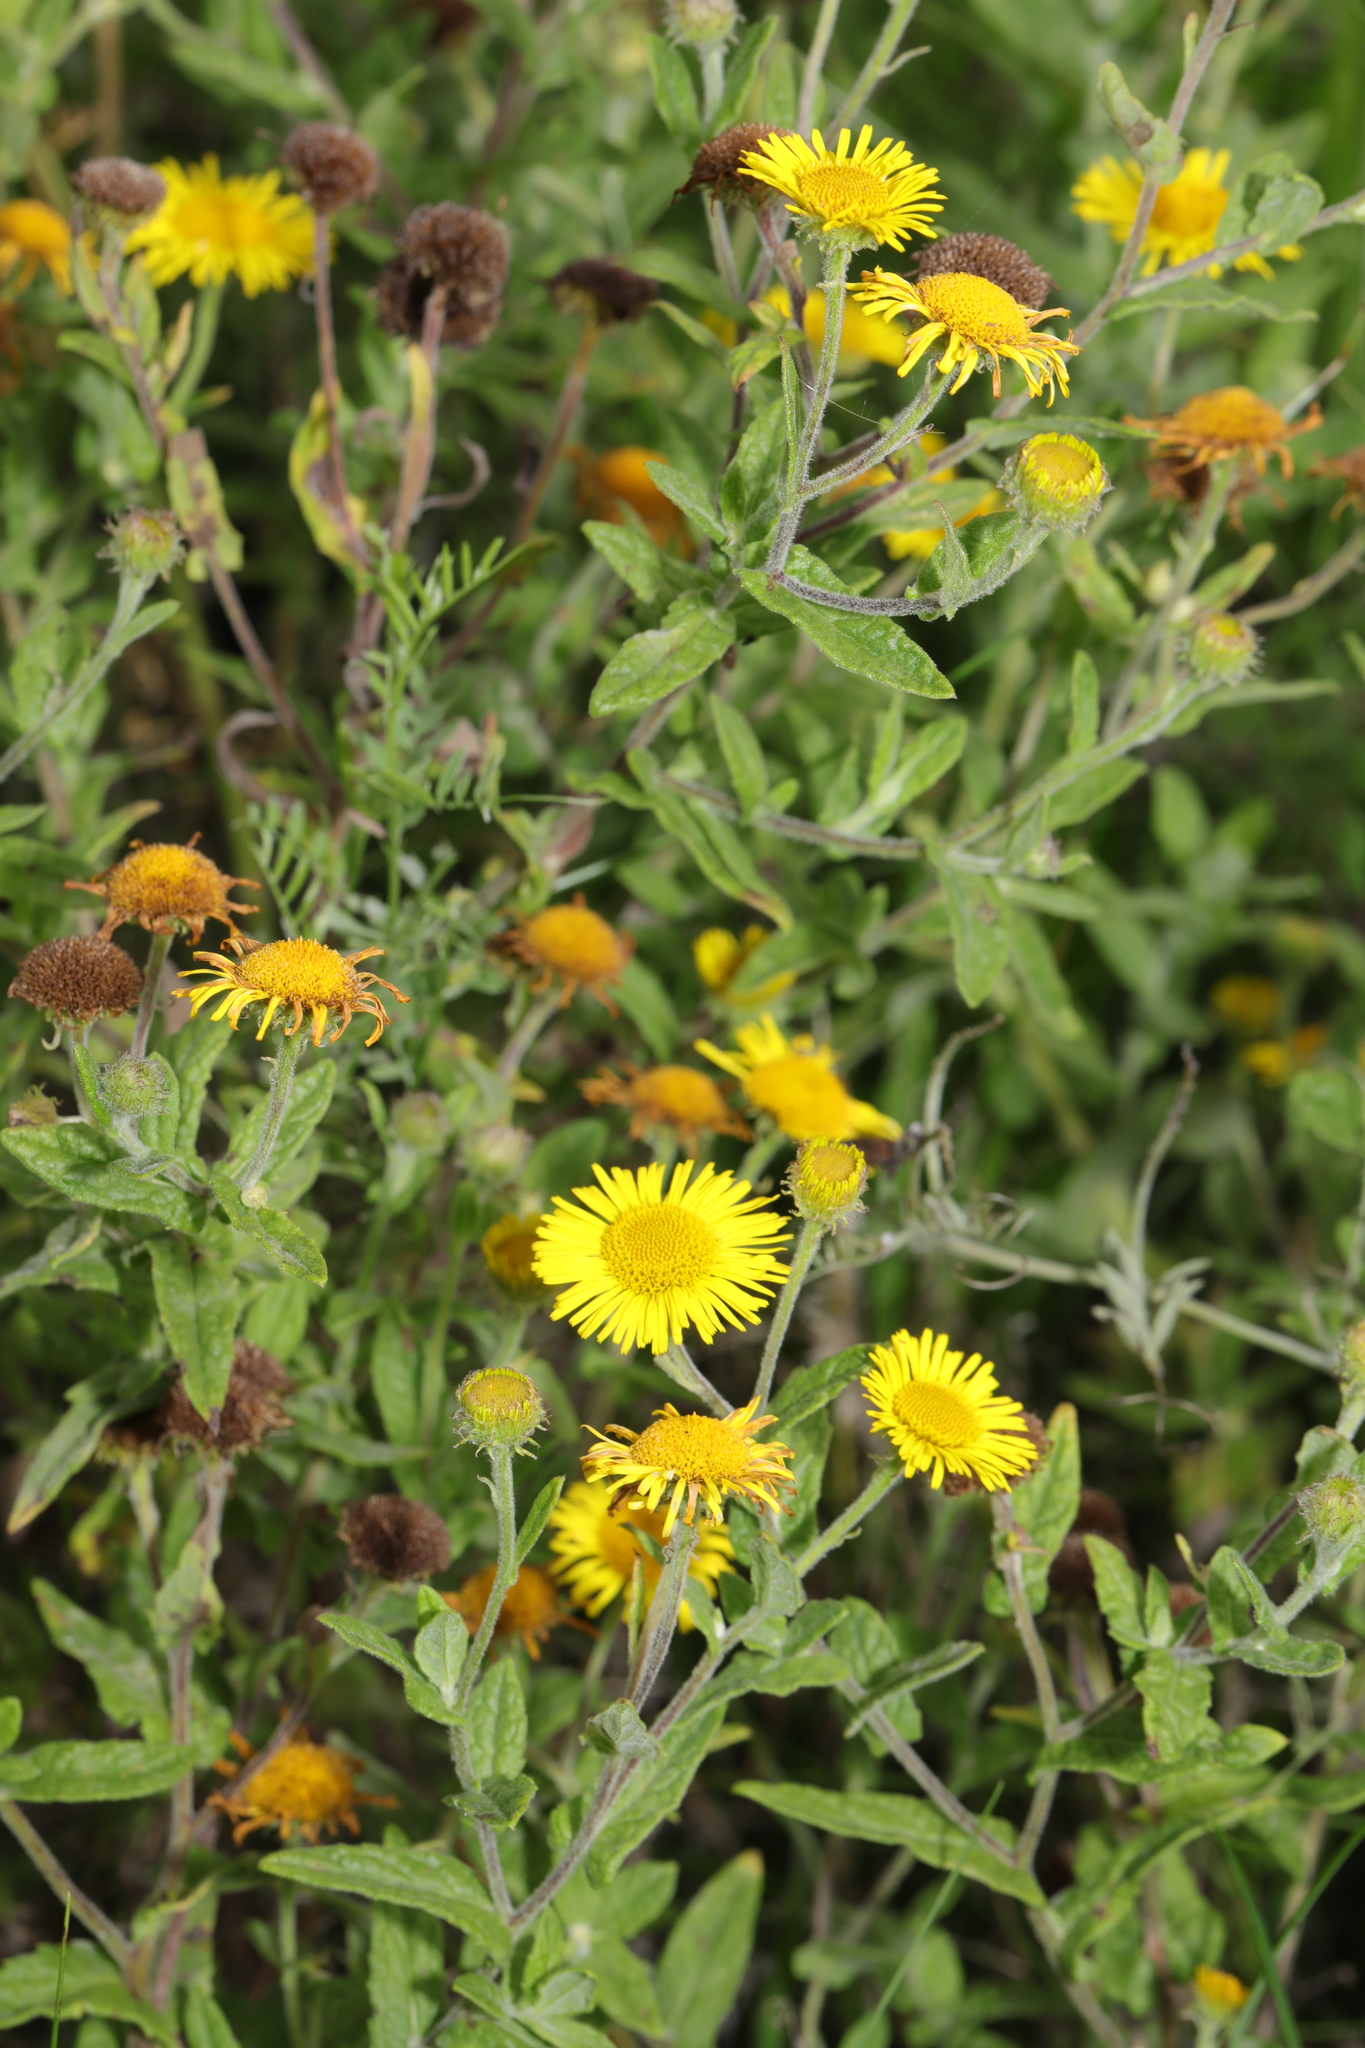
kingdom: Plantae
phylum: Tracheophyta
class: Magnoliopsida
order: Asterales
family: Asteraceae
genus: Pulicaria
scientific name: Pulicaria dysenterica
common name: Common fleabane
